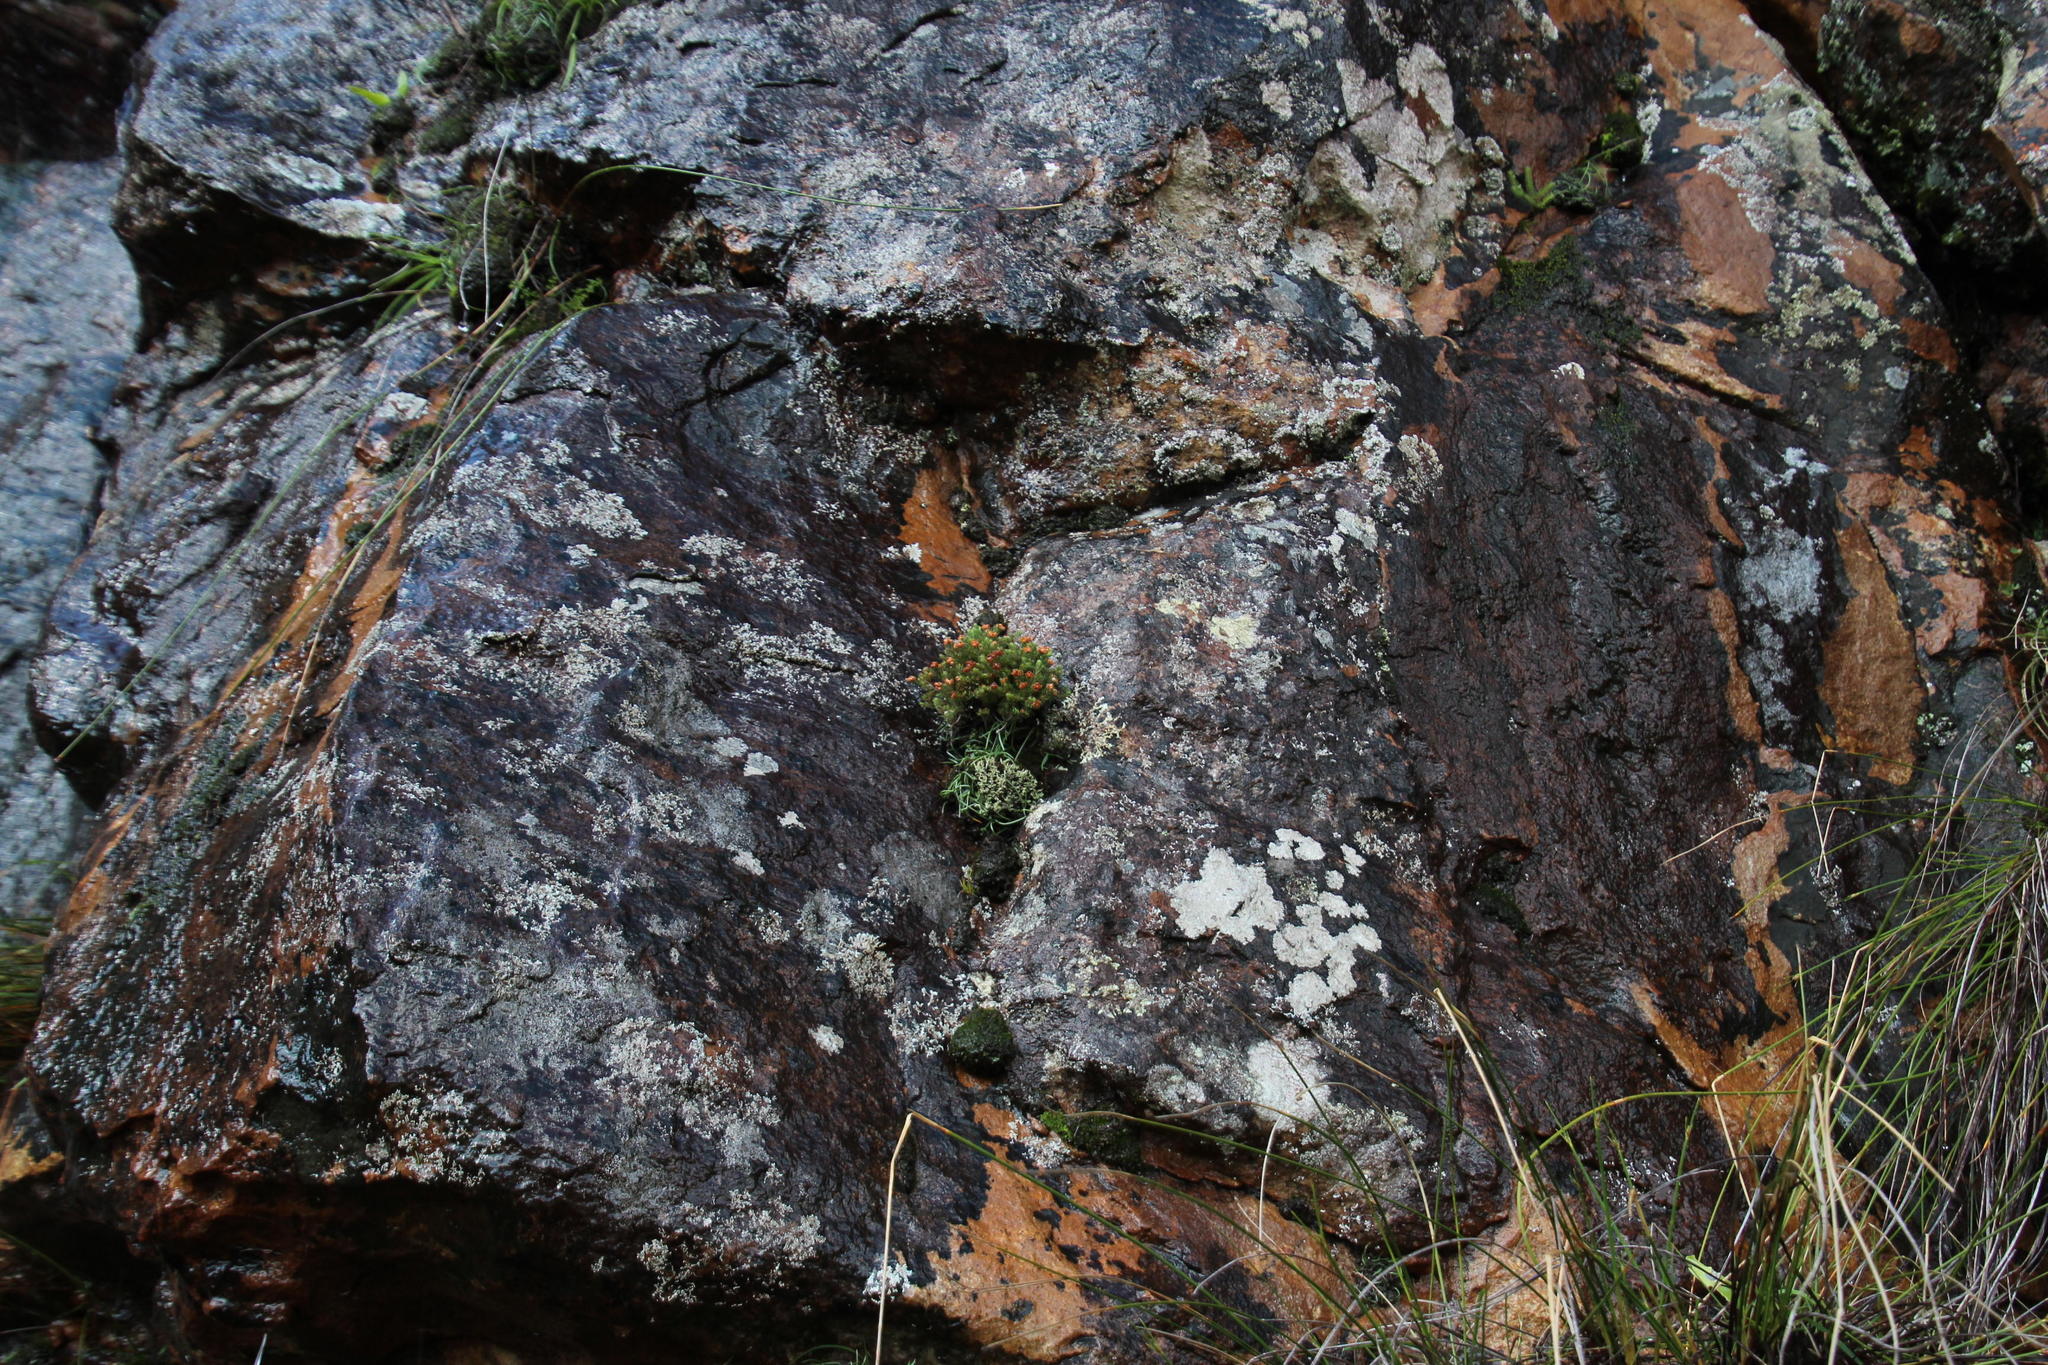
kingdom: Plantae
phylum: Tracheophyta
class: Magnoliopsida
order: Ericales
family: Ericaceae
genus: Erica
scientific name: Erica distorta
